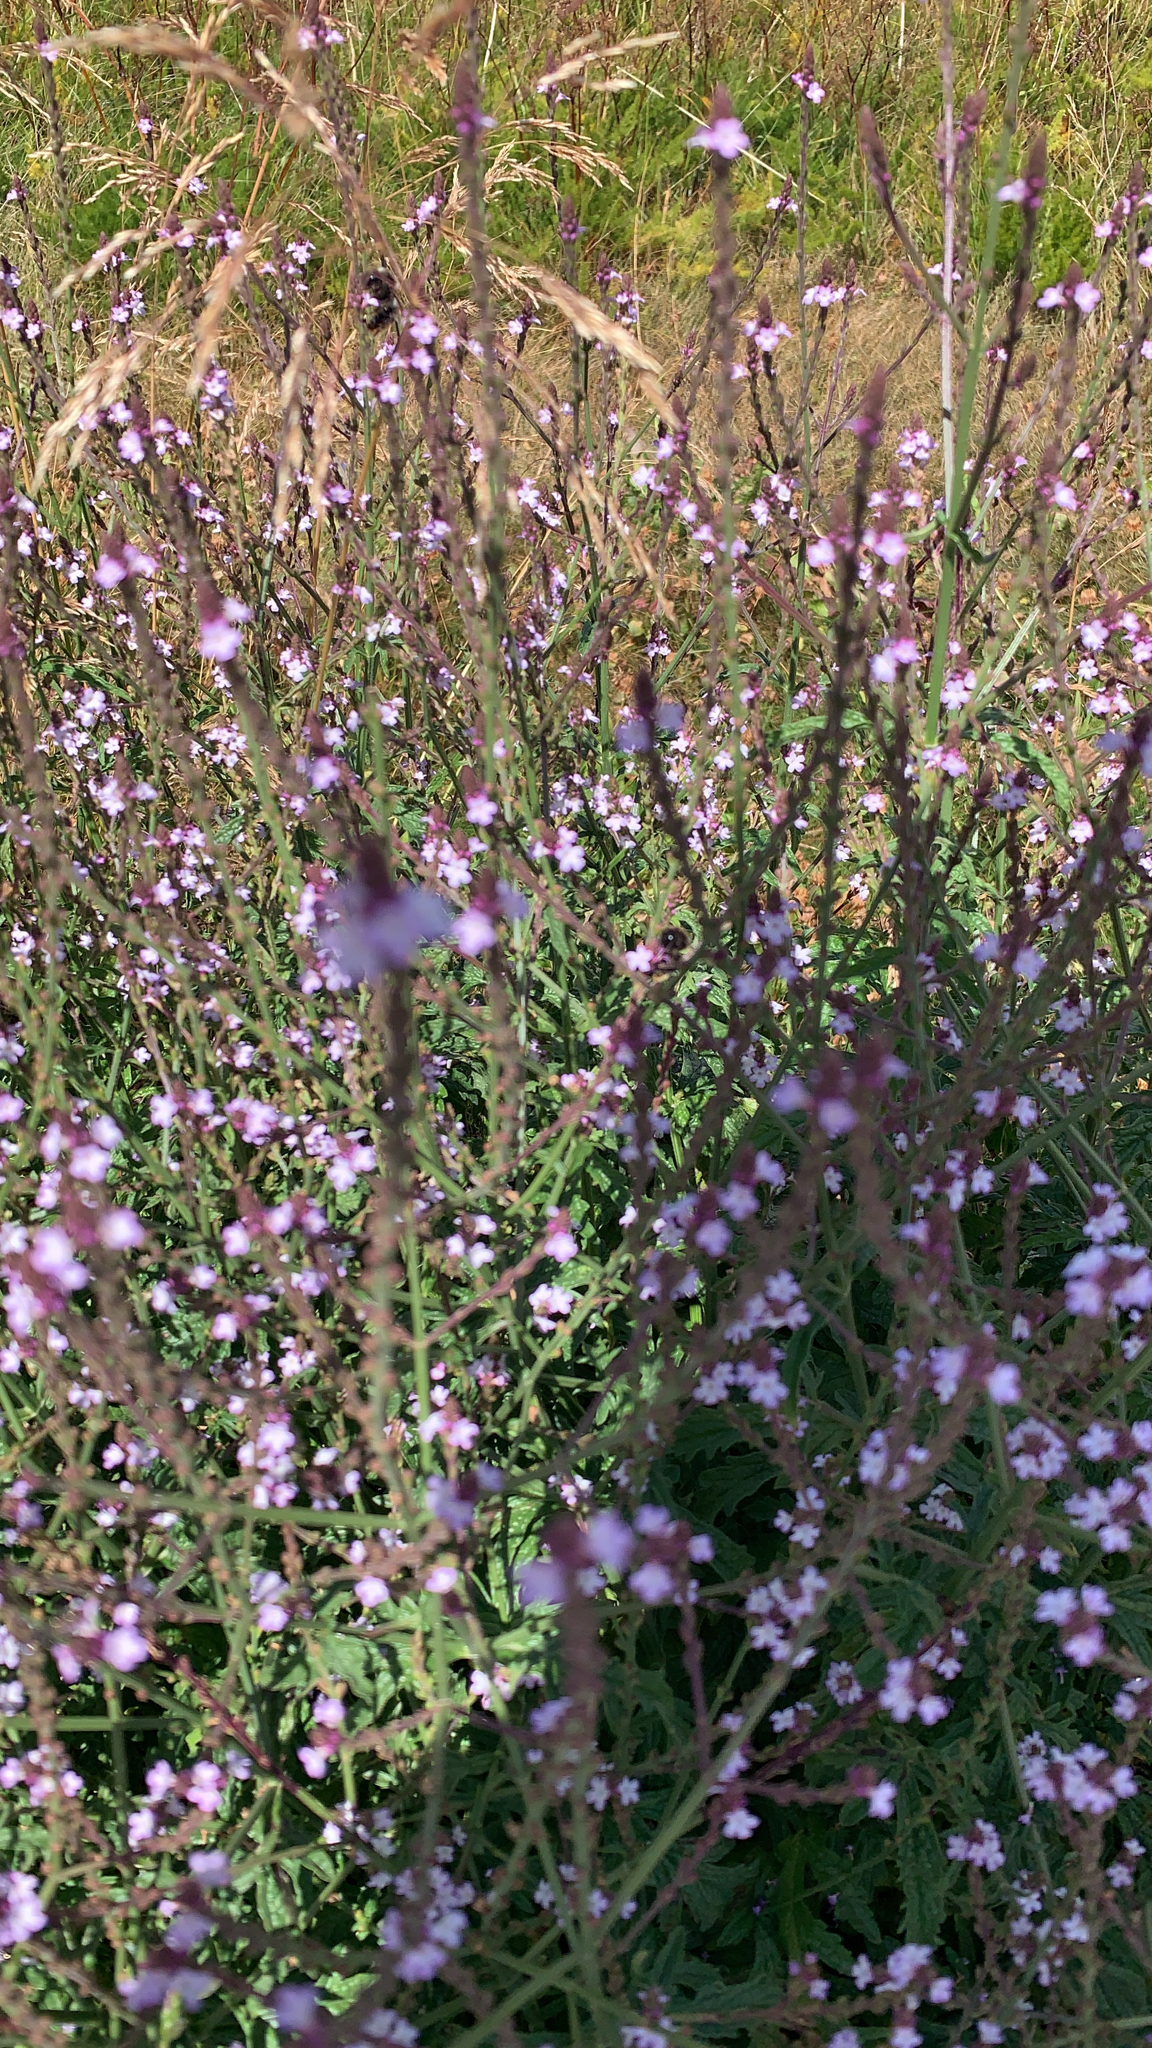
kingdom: Plantae
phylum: Tracheophyta
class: Magnoliopsida
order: Lamiales
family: Verbenaceae
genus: Verbena
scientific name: Verbena officinalis
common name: Vervain
